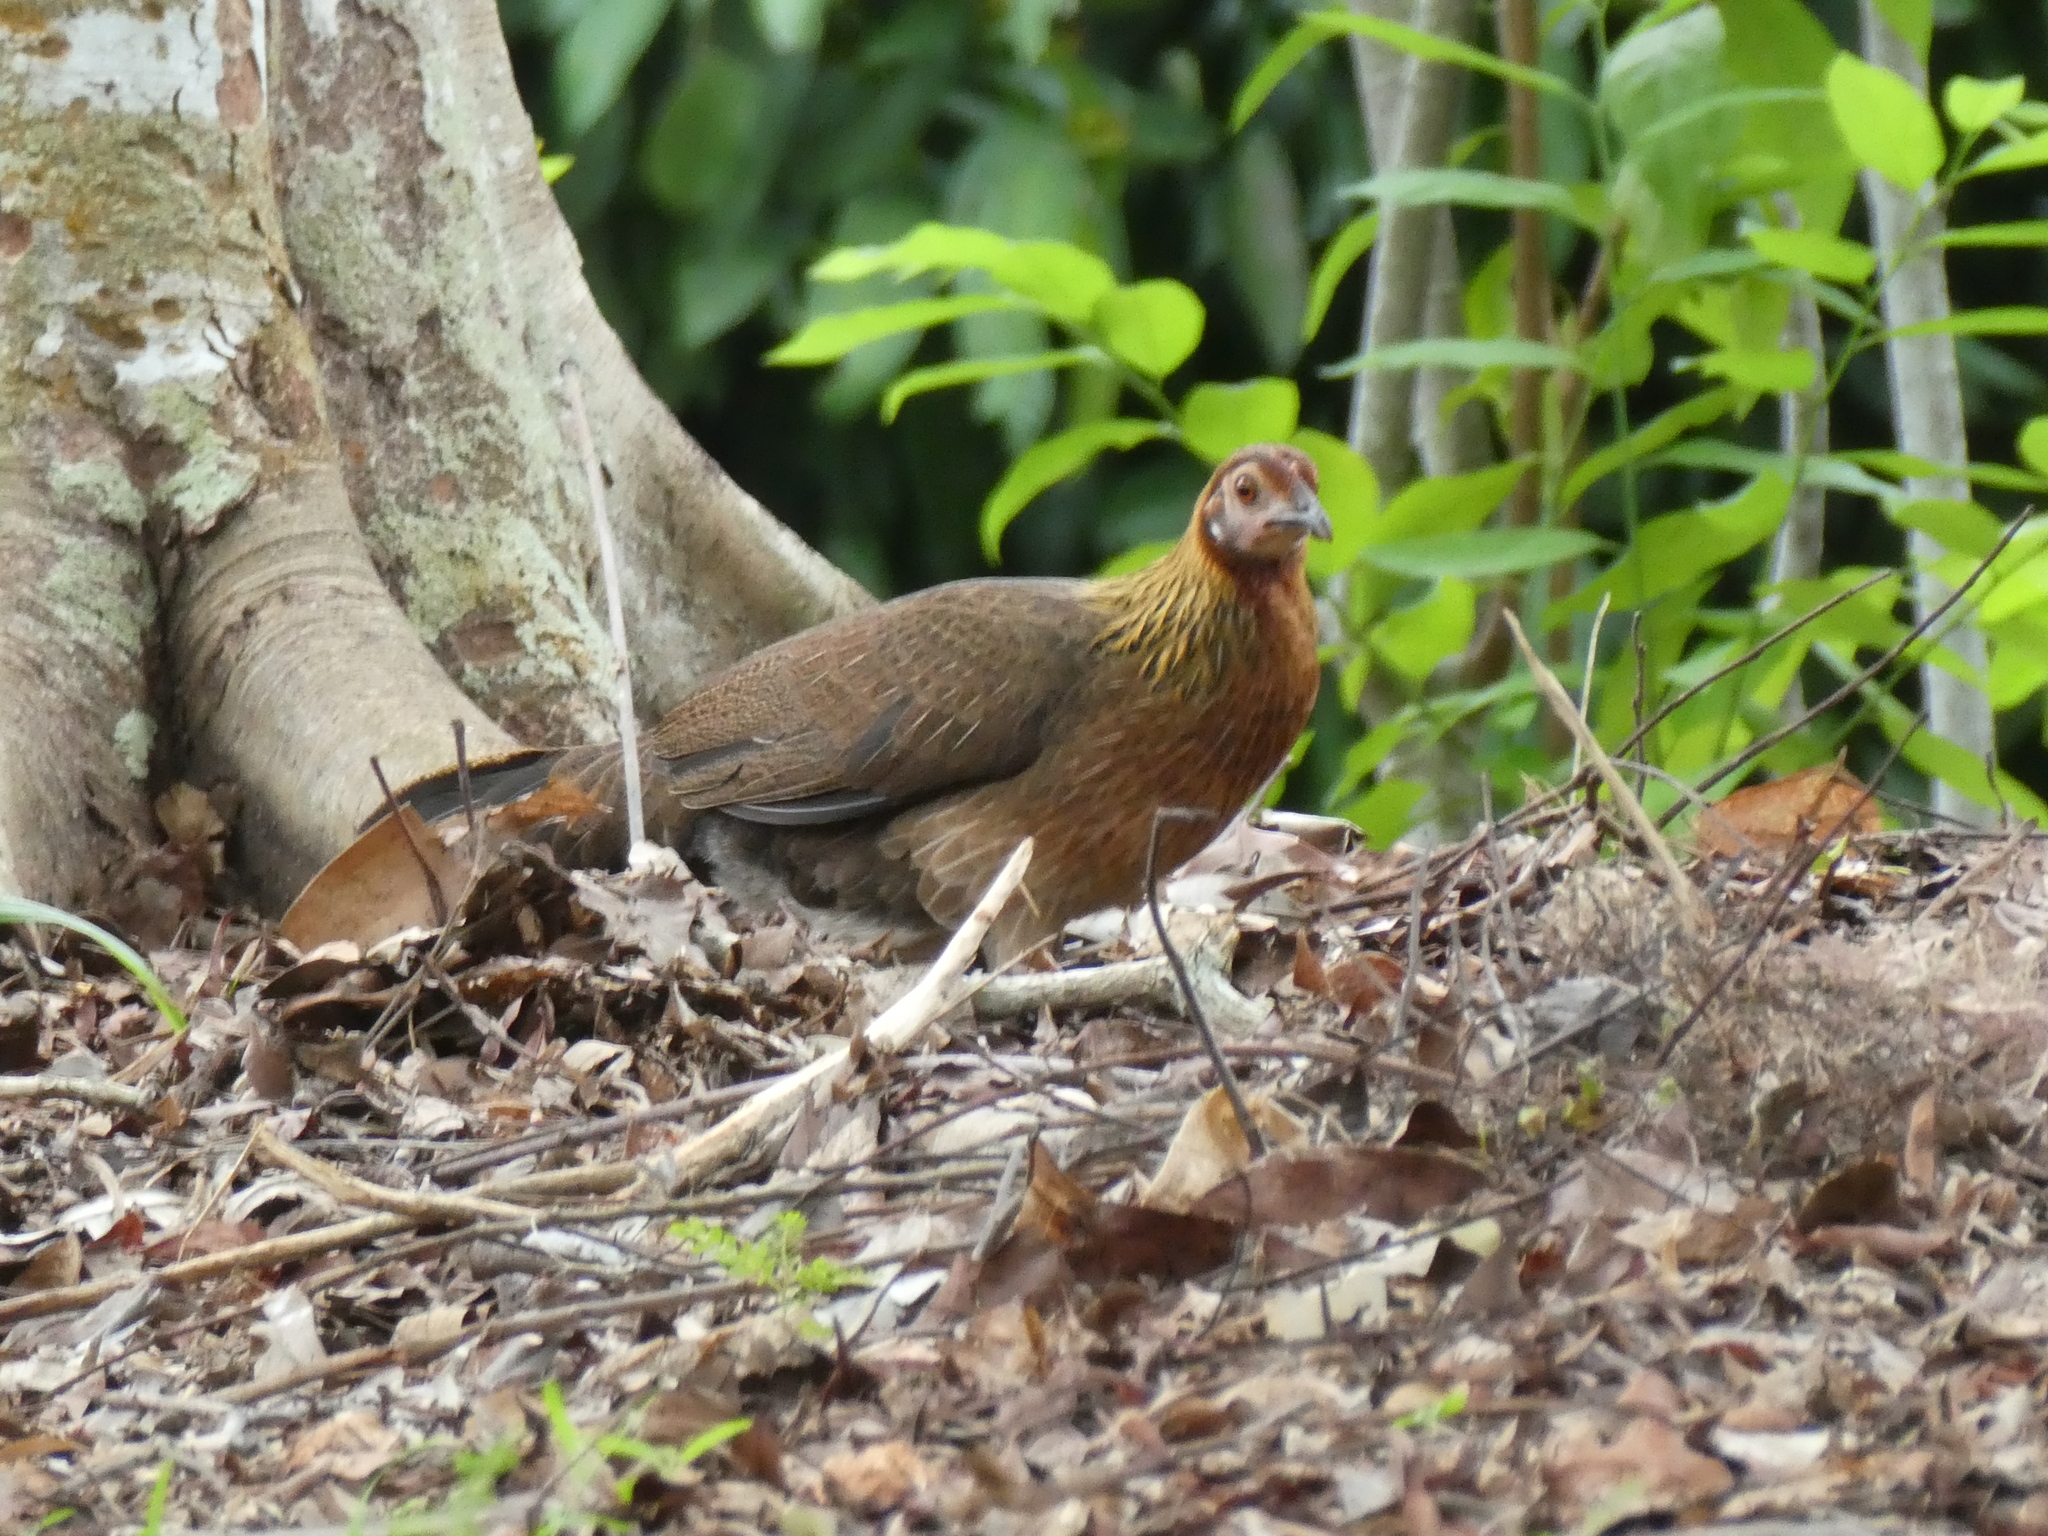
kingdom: Animalia
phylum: Chordata
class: Aves
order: Galliformes
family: Phasianidae
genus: Gallus
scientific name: Gallus gallus
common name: Red junglefowl
